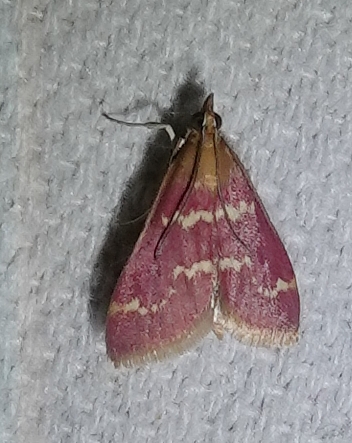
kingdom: Animalia
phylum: Arthropoda
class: Insecta
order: Lepidoptera
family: Crambidae
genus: Pyrausta
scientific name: Pyrausta signatalis
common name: Raspberry pyrausta moth
